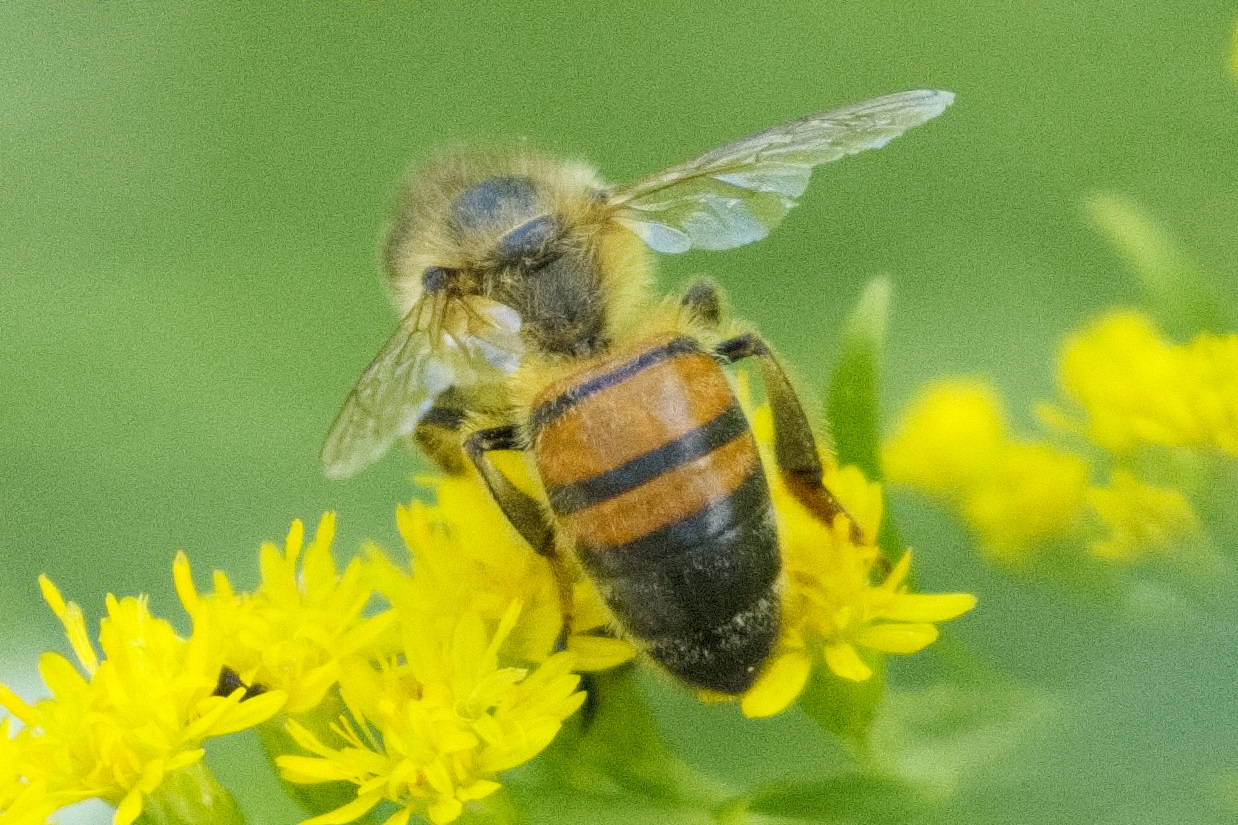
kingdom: Animalia
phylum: Arthropoda
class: Insecta
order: Hymenoptera
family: Apidae
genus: Apis
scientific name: Apis mellifera
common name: Honey bee
